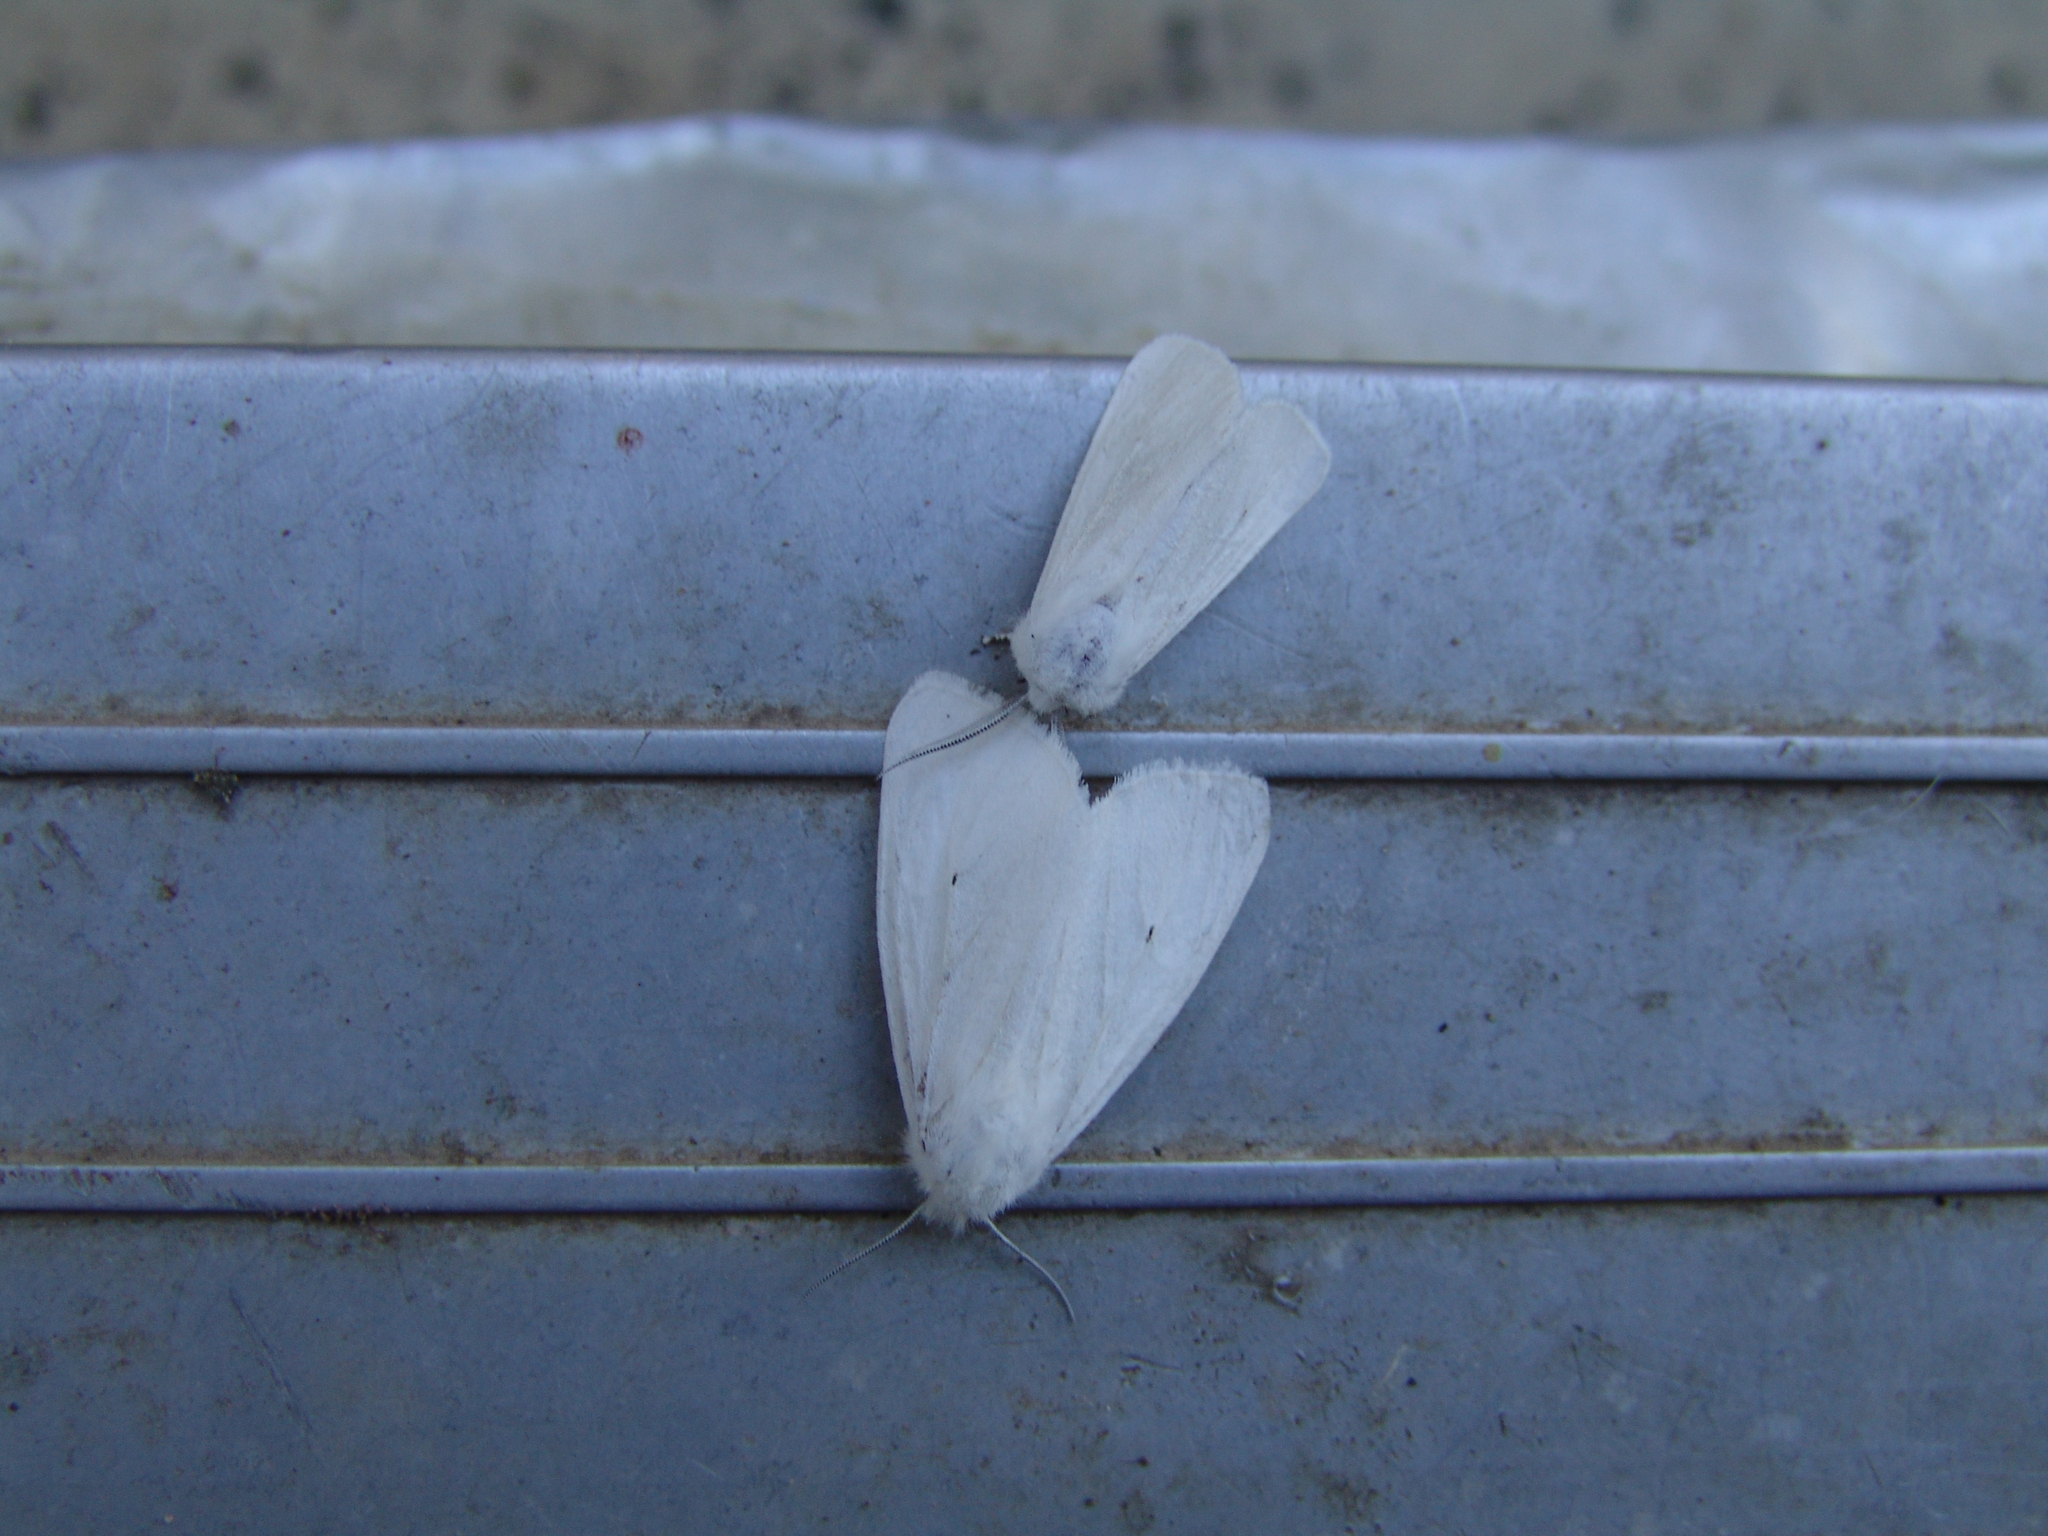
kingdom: Animalia
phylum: Arthropoda
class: Insecta
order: Lepidoptera
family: Erebidae
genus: Spilosoma
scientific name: Spilosoma virginica
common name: Virginia tiger moth
